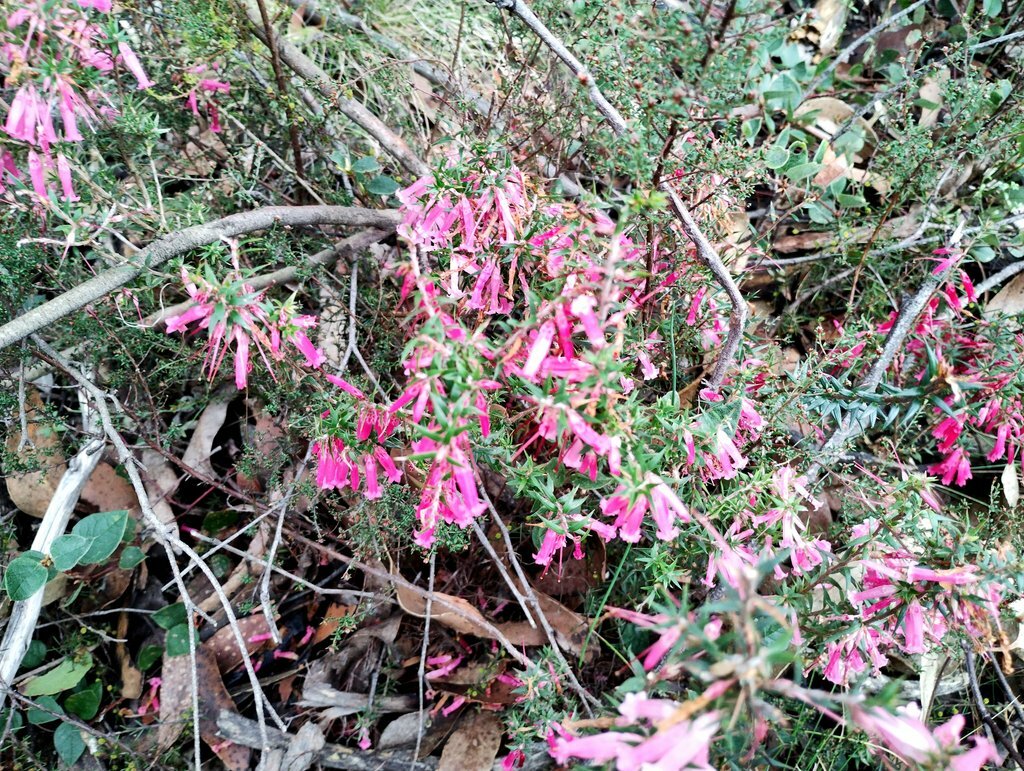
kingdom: Plantae
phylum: Tracheophyta
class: Magnoliopsida
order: Ericales
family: Ericaceae
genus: Epacris
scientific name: Epacris impressa
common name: Common-heath
